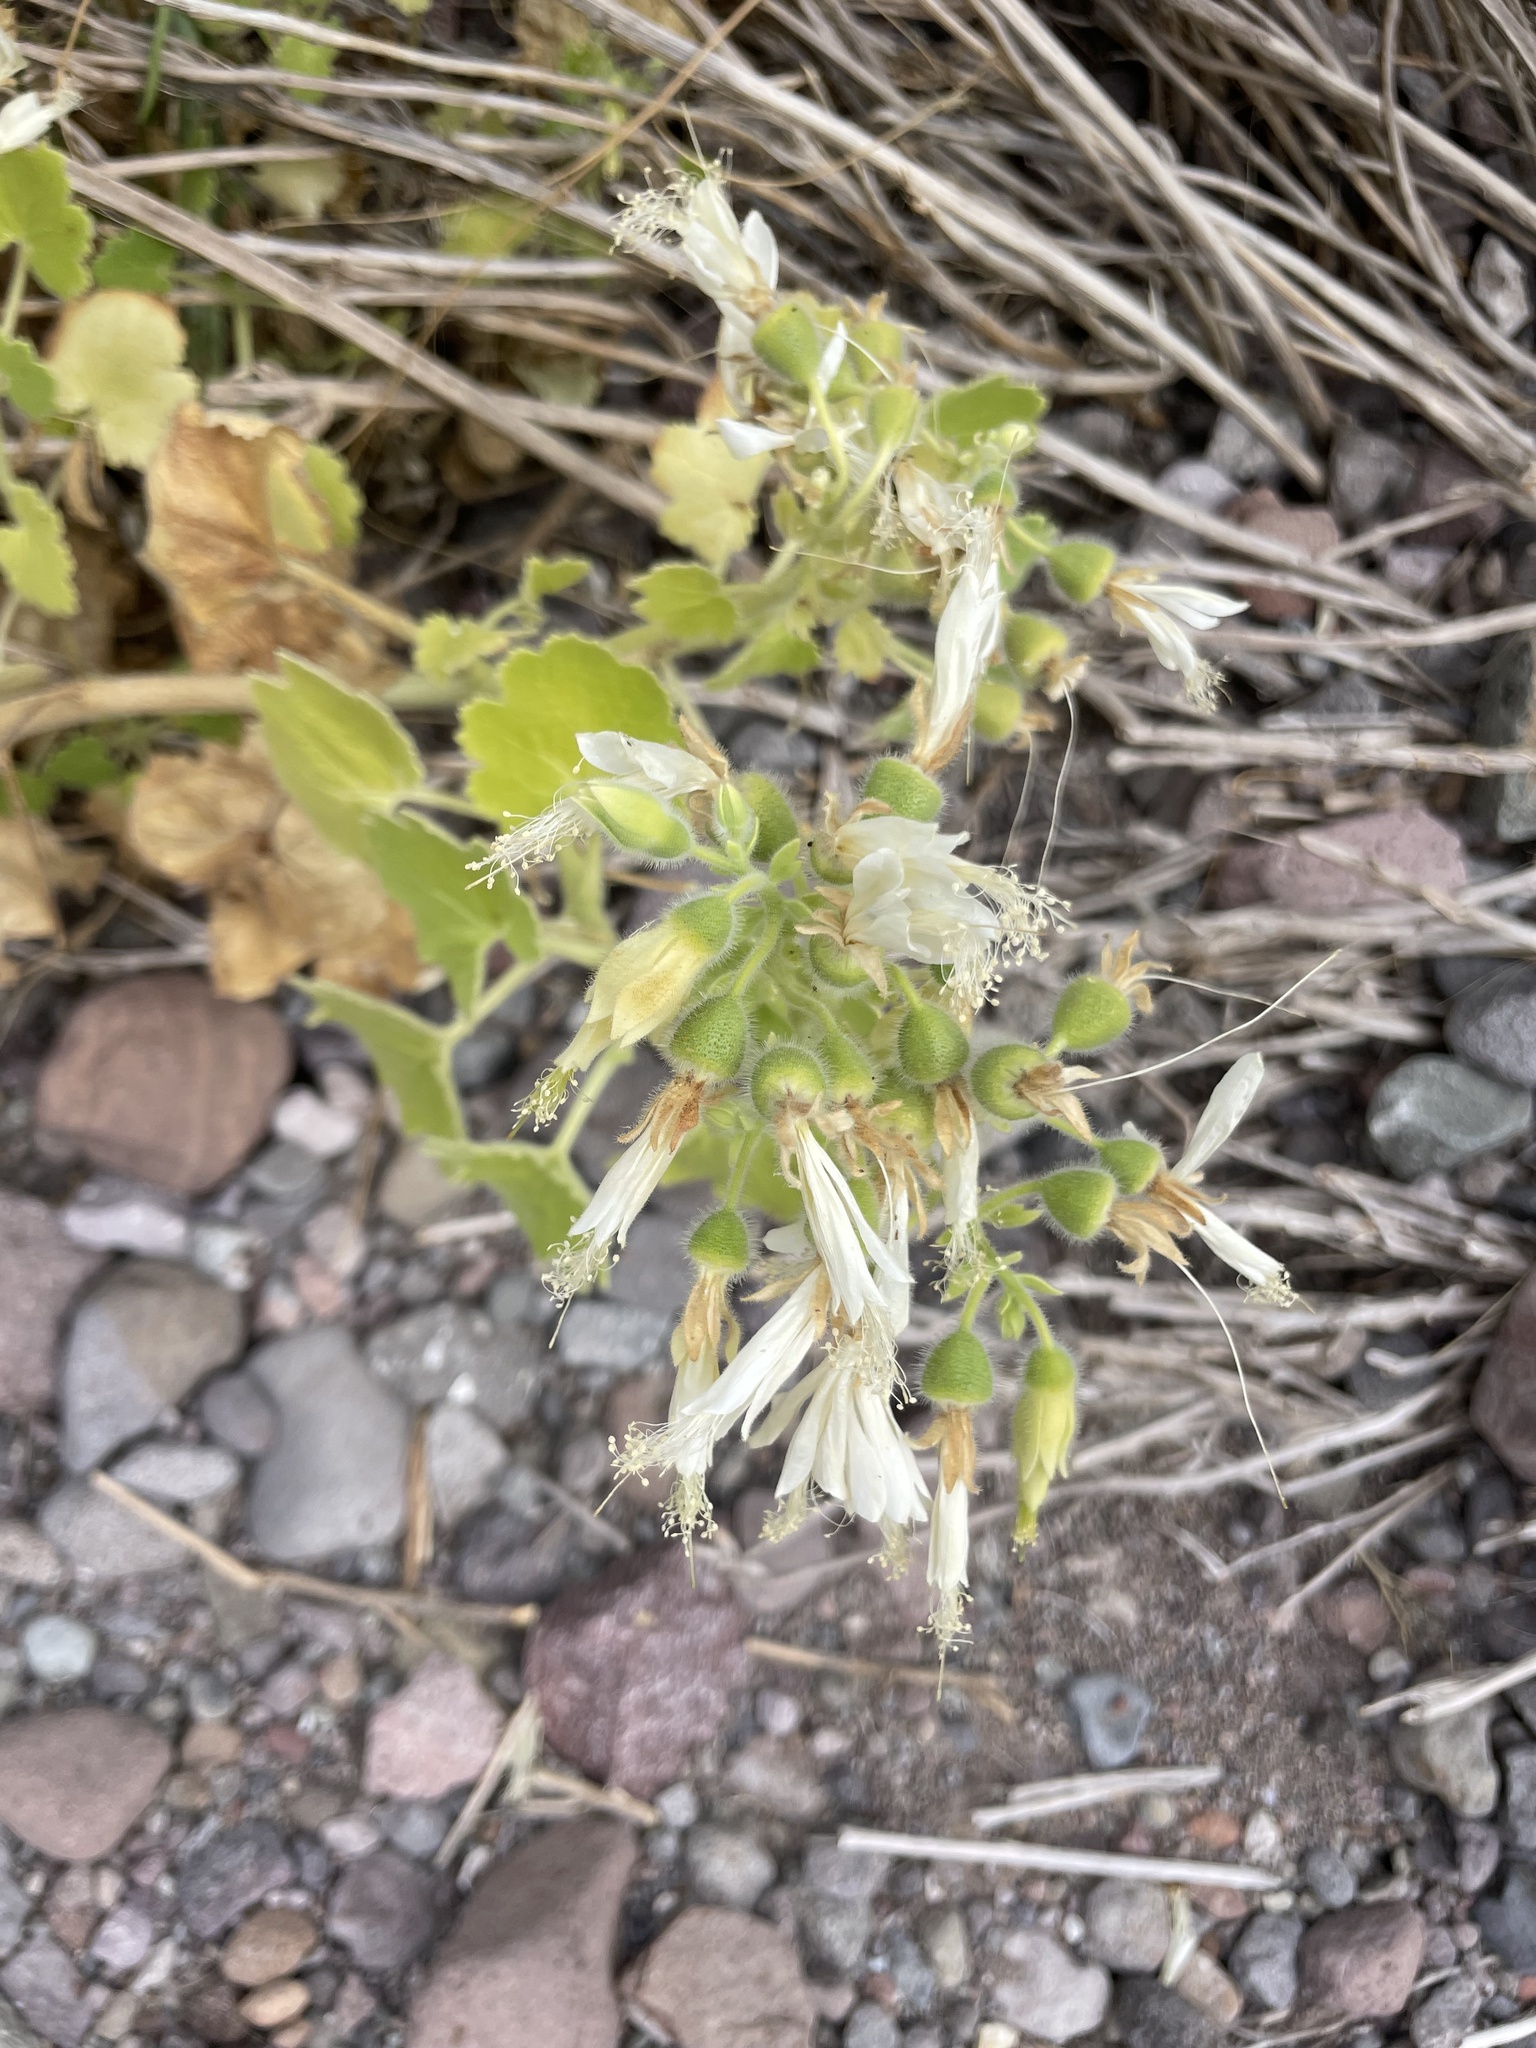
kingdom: Plantae
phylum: Tracheophyta
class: Magnoliopsida
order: Cornales
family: Loasaceae
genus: Eucnide
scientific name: Eucnide cordata
